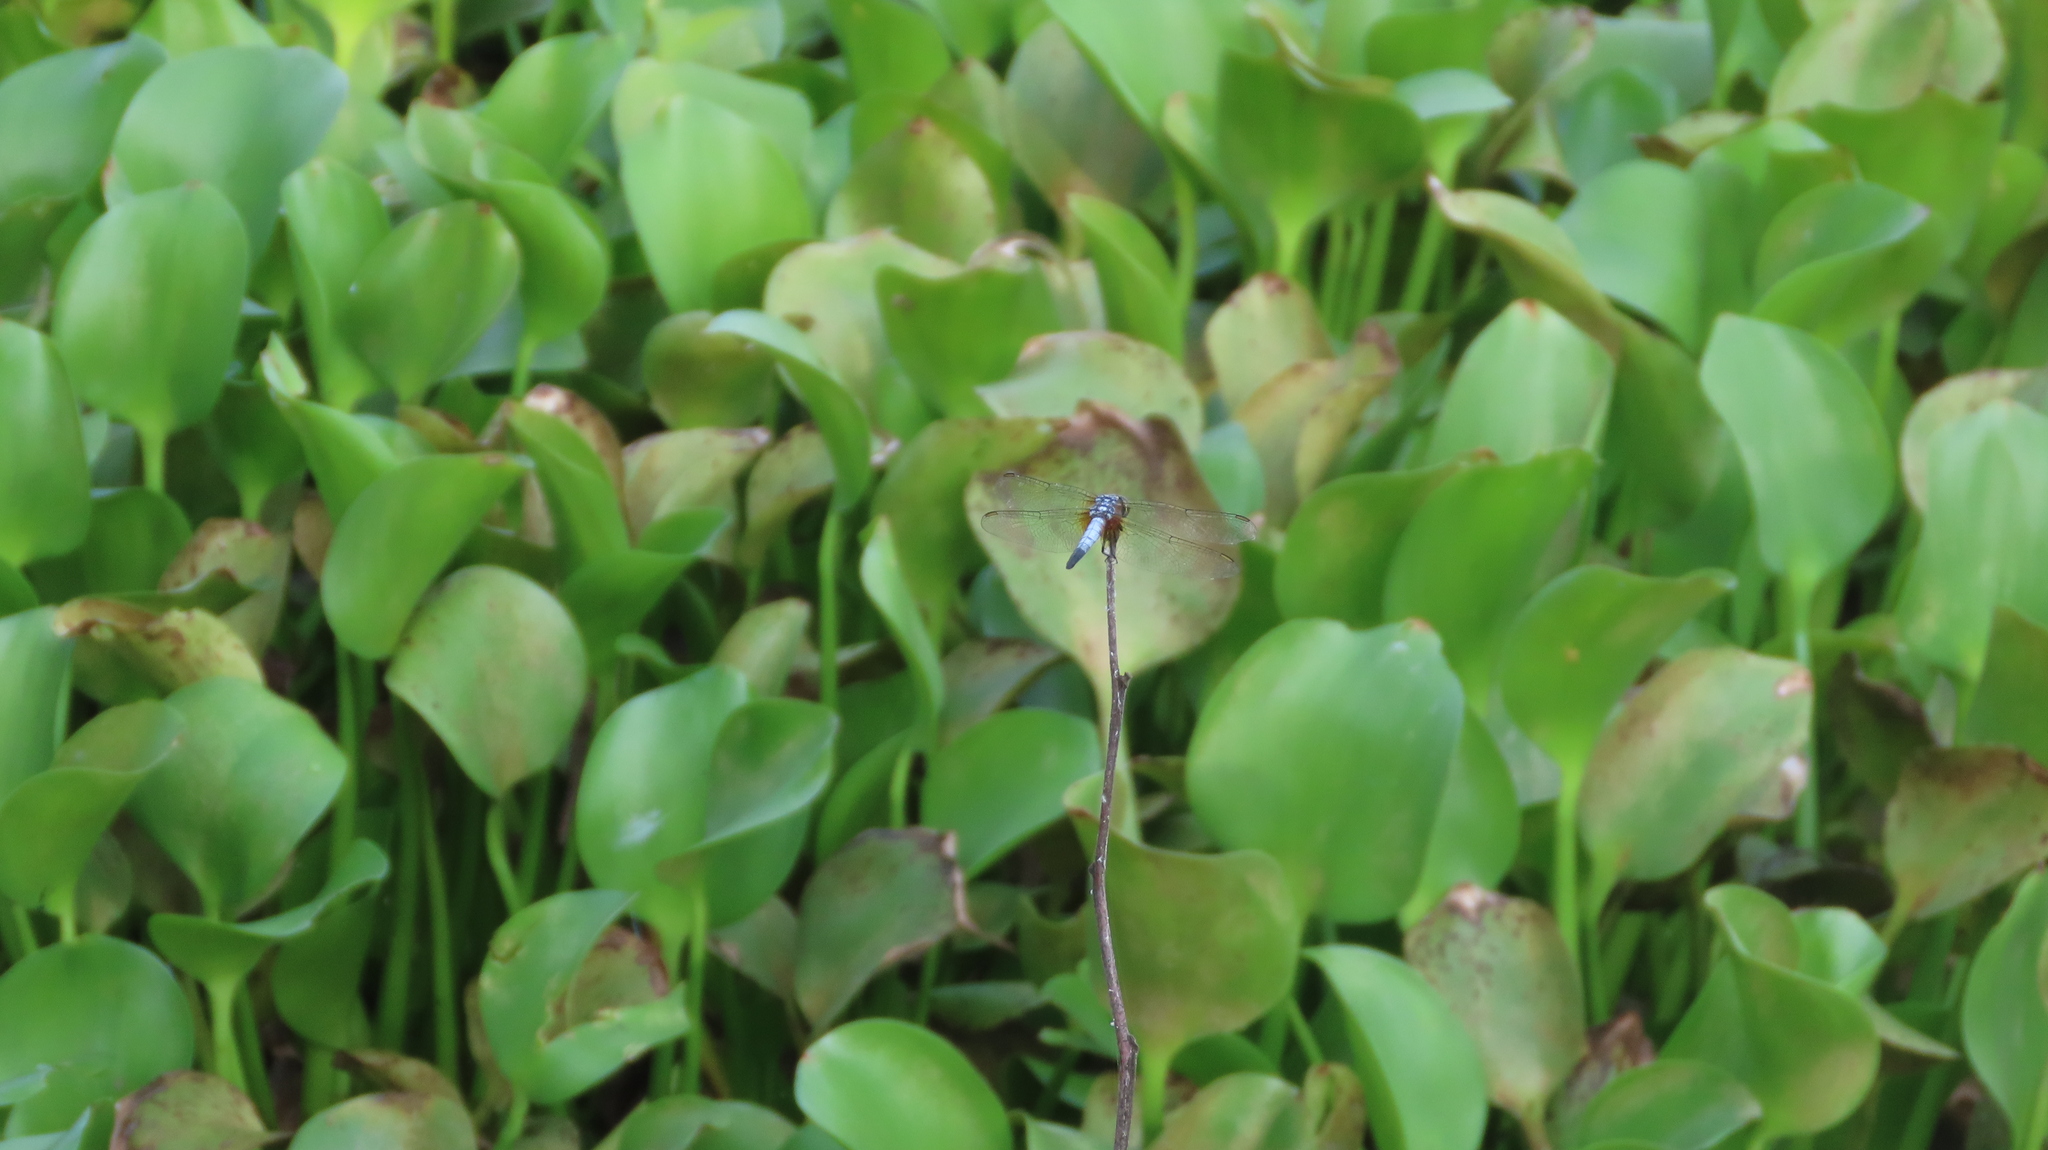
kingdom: Animalia
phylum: Arthropoda
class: Insecta
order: Odonata
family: Libellulidae
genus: Brachydiplax
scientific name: Brachydiplax chalybea
